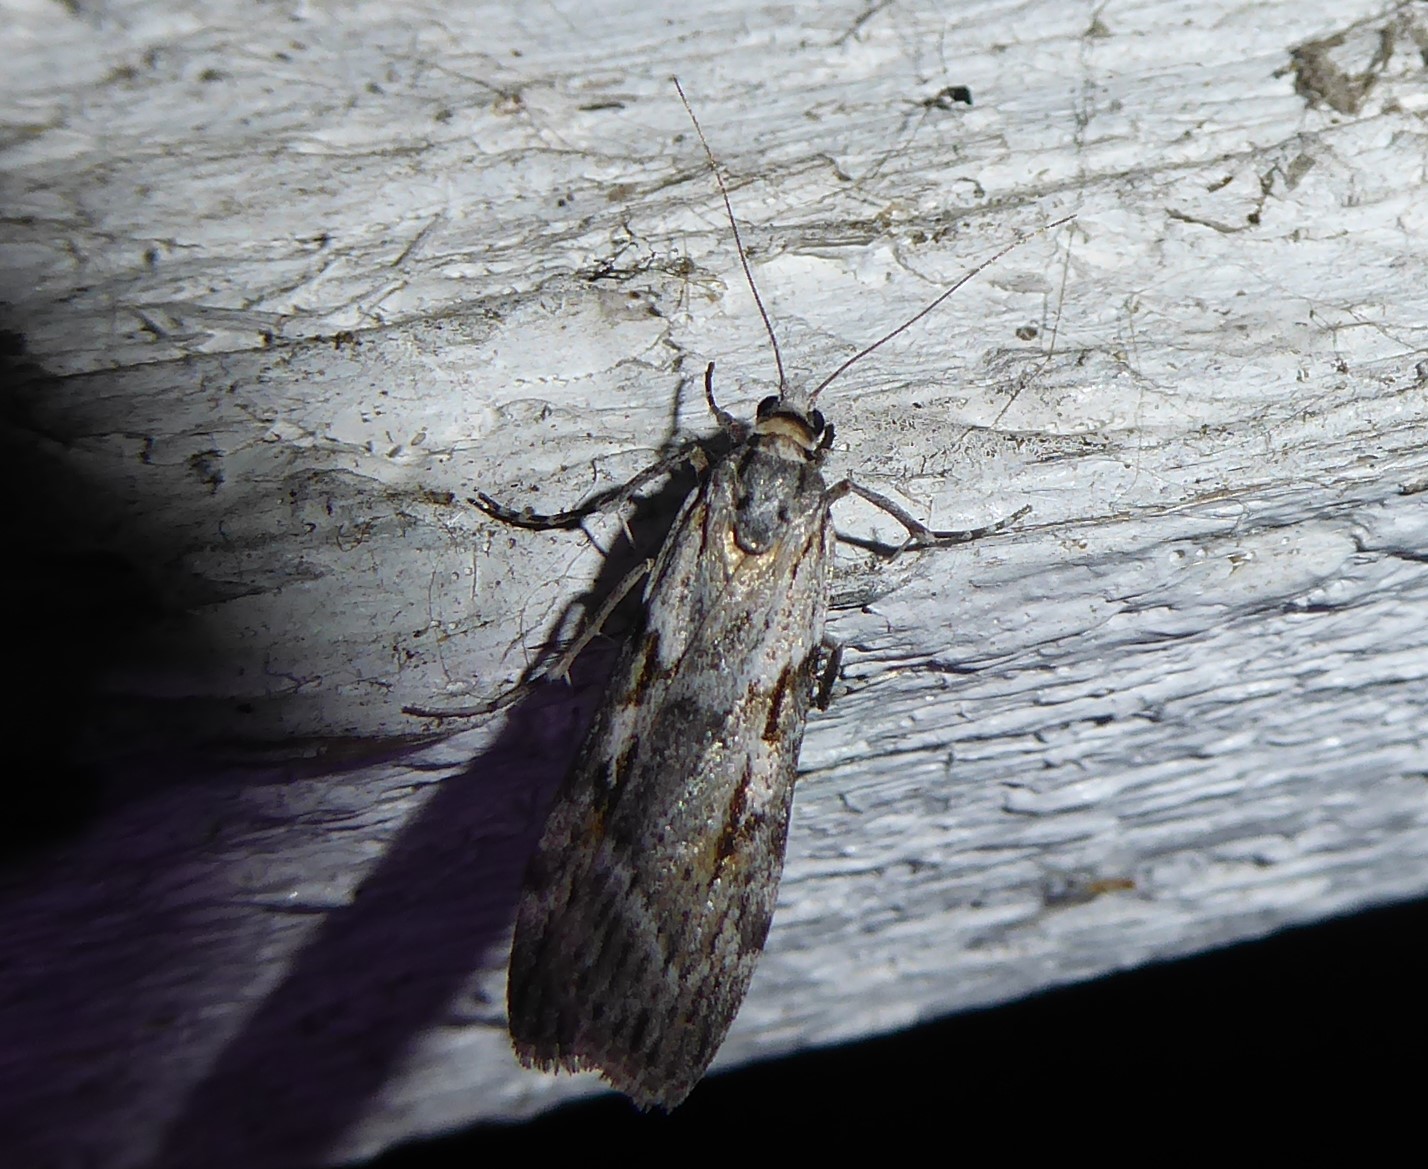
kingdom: Animalia
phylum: Arthropoda
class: Insecta
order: Lepidoptera
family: Crambidae
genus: Scoparia
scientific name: Scoparia halopis
